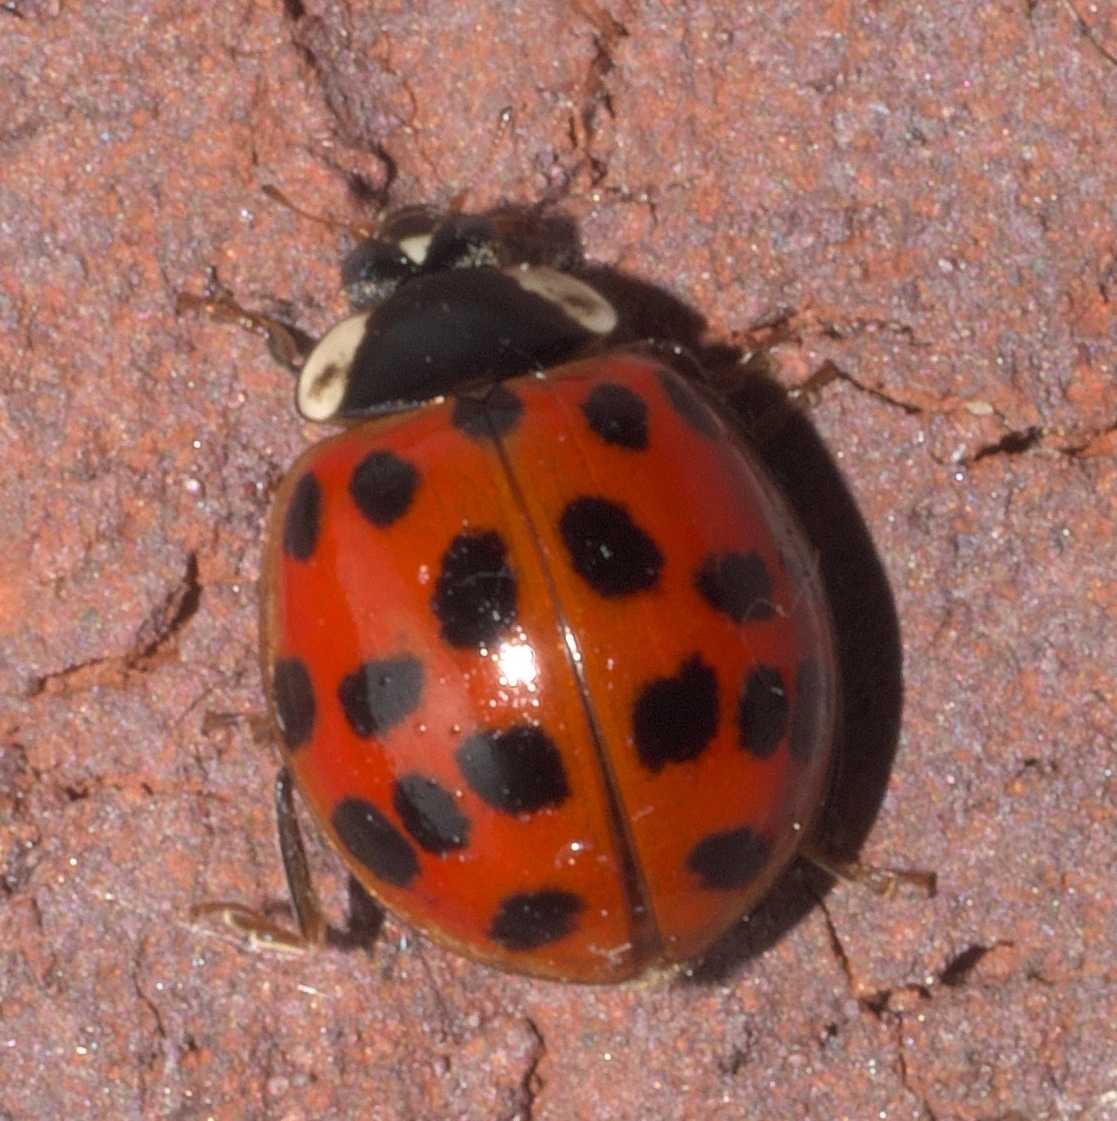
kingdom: Animalia
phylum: Arthropoda
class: Insecta
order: Coleoptera
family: Coccinellidae
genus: Harmonia
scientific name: Harmonia axyridis
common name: Harlequin ladybird
